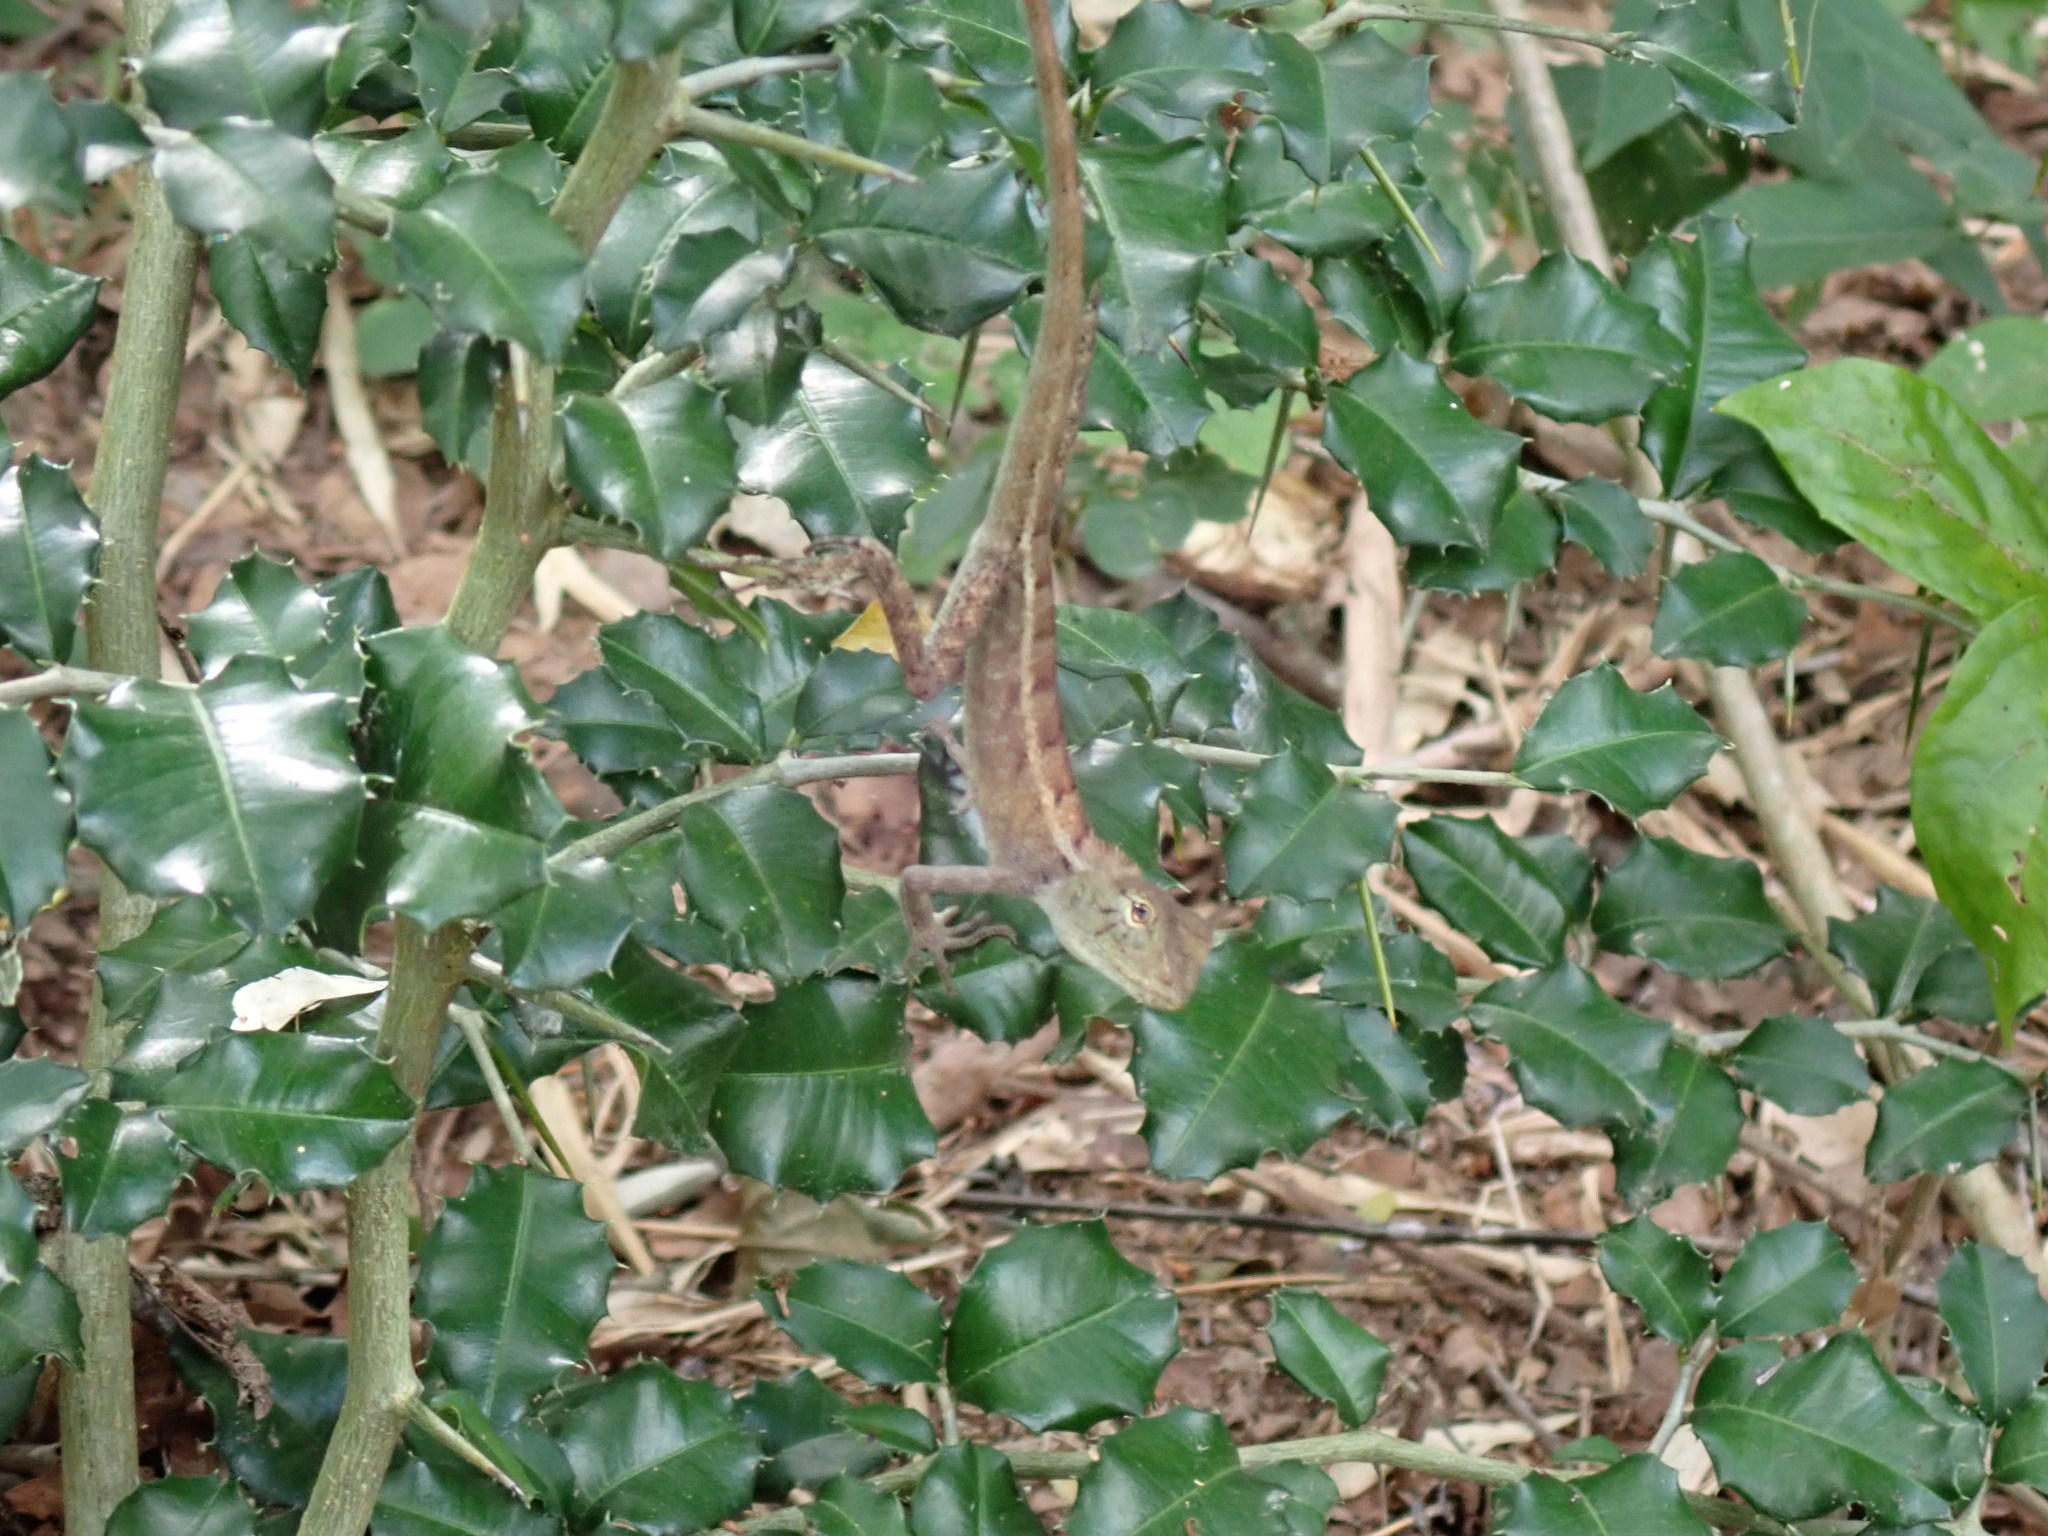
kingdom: Animalia
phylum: Chordata
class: Squamata
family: Agamidae
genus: Calotes
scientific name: Calotes versicolor
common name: Oriental garden lizard
